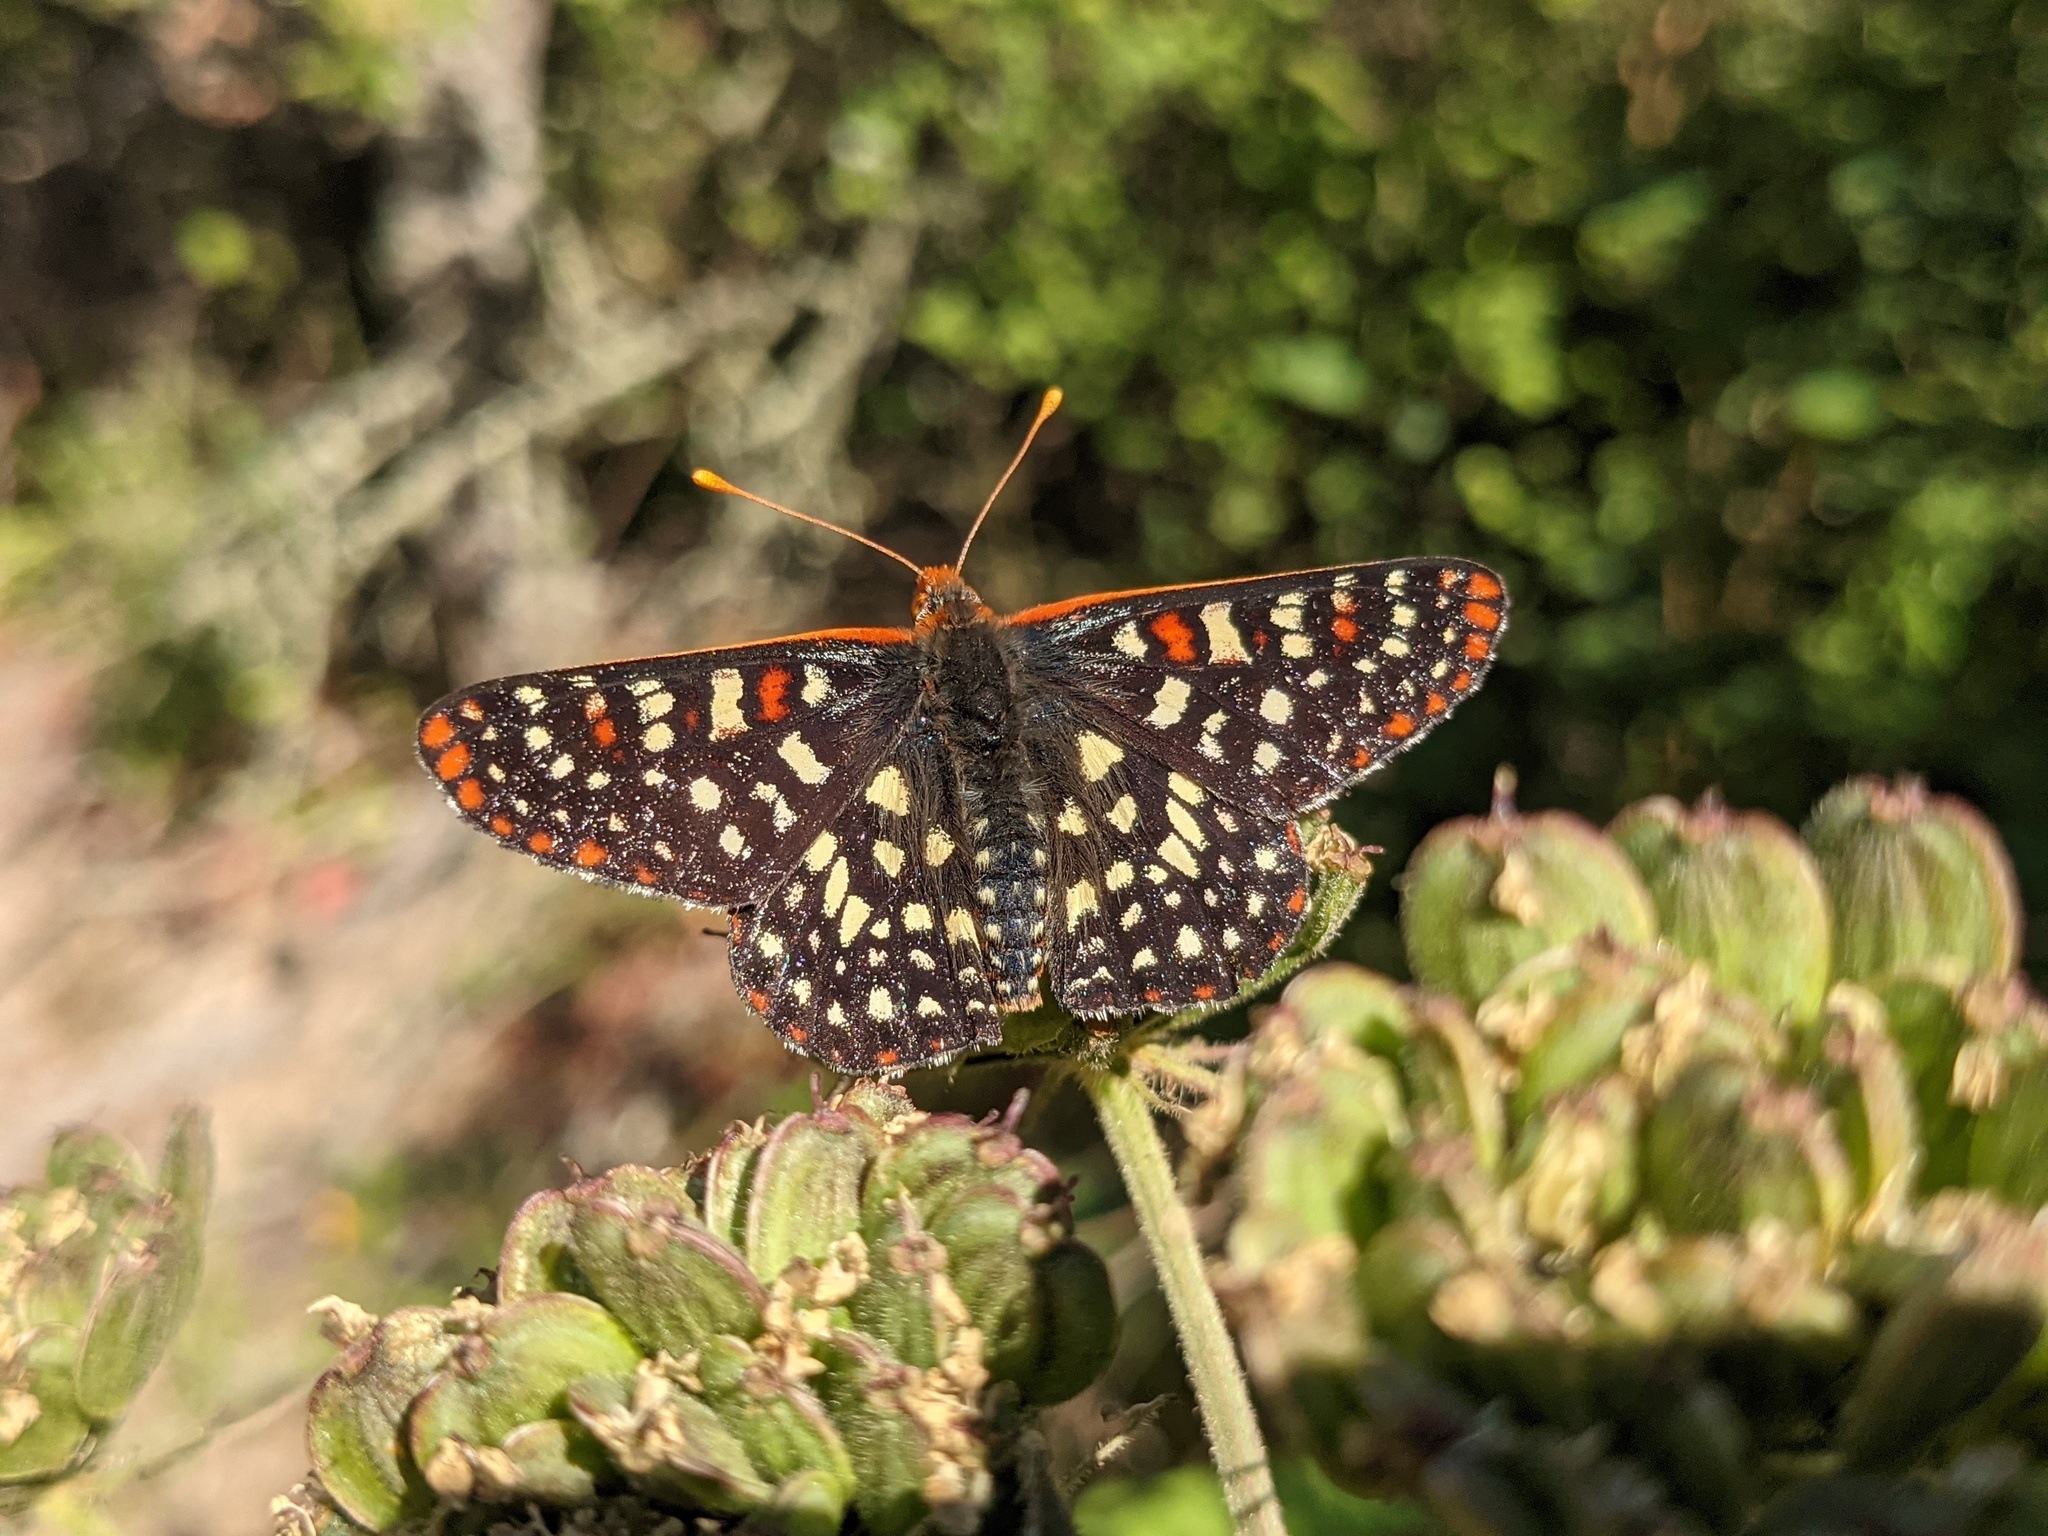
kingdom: Animalia
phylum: Arthropoda
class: Insecta
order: Lepidoptera
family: Nymphalidae
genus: Occidryas
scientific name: Occidryas chalcedona
